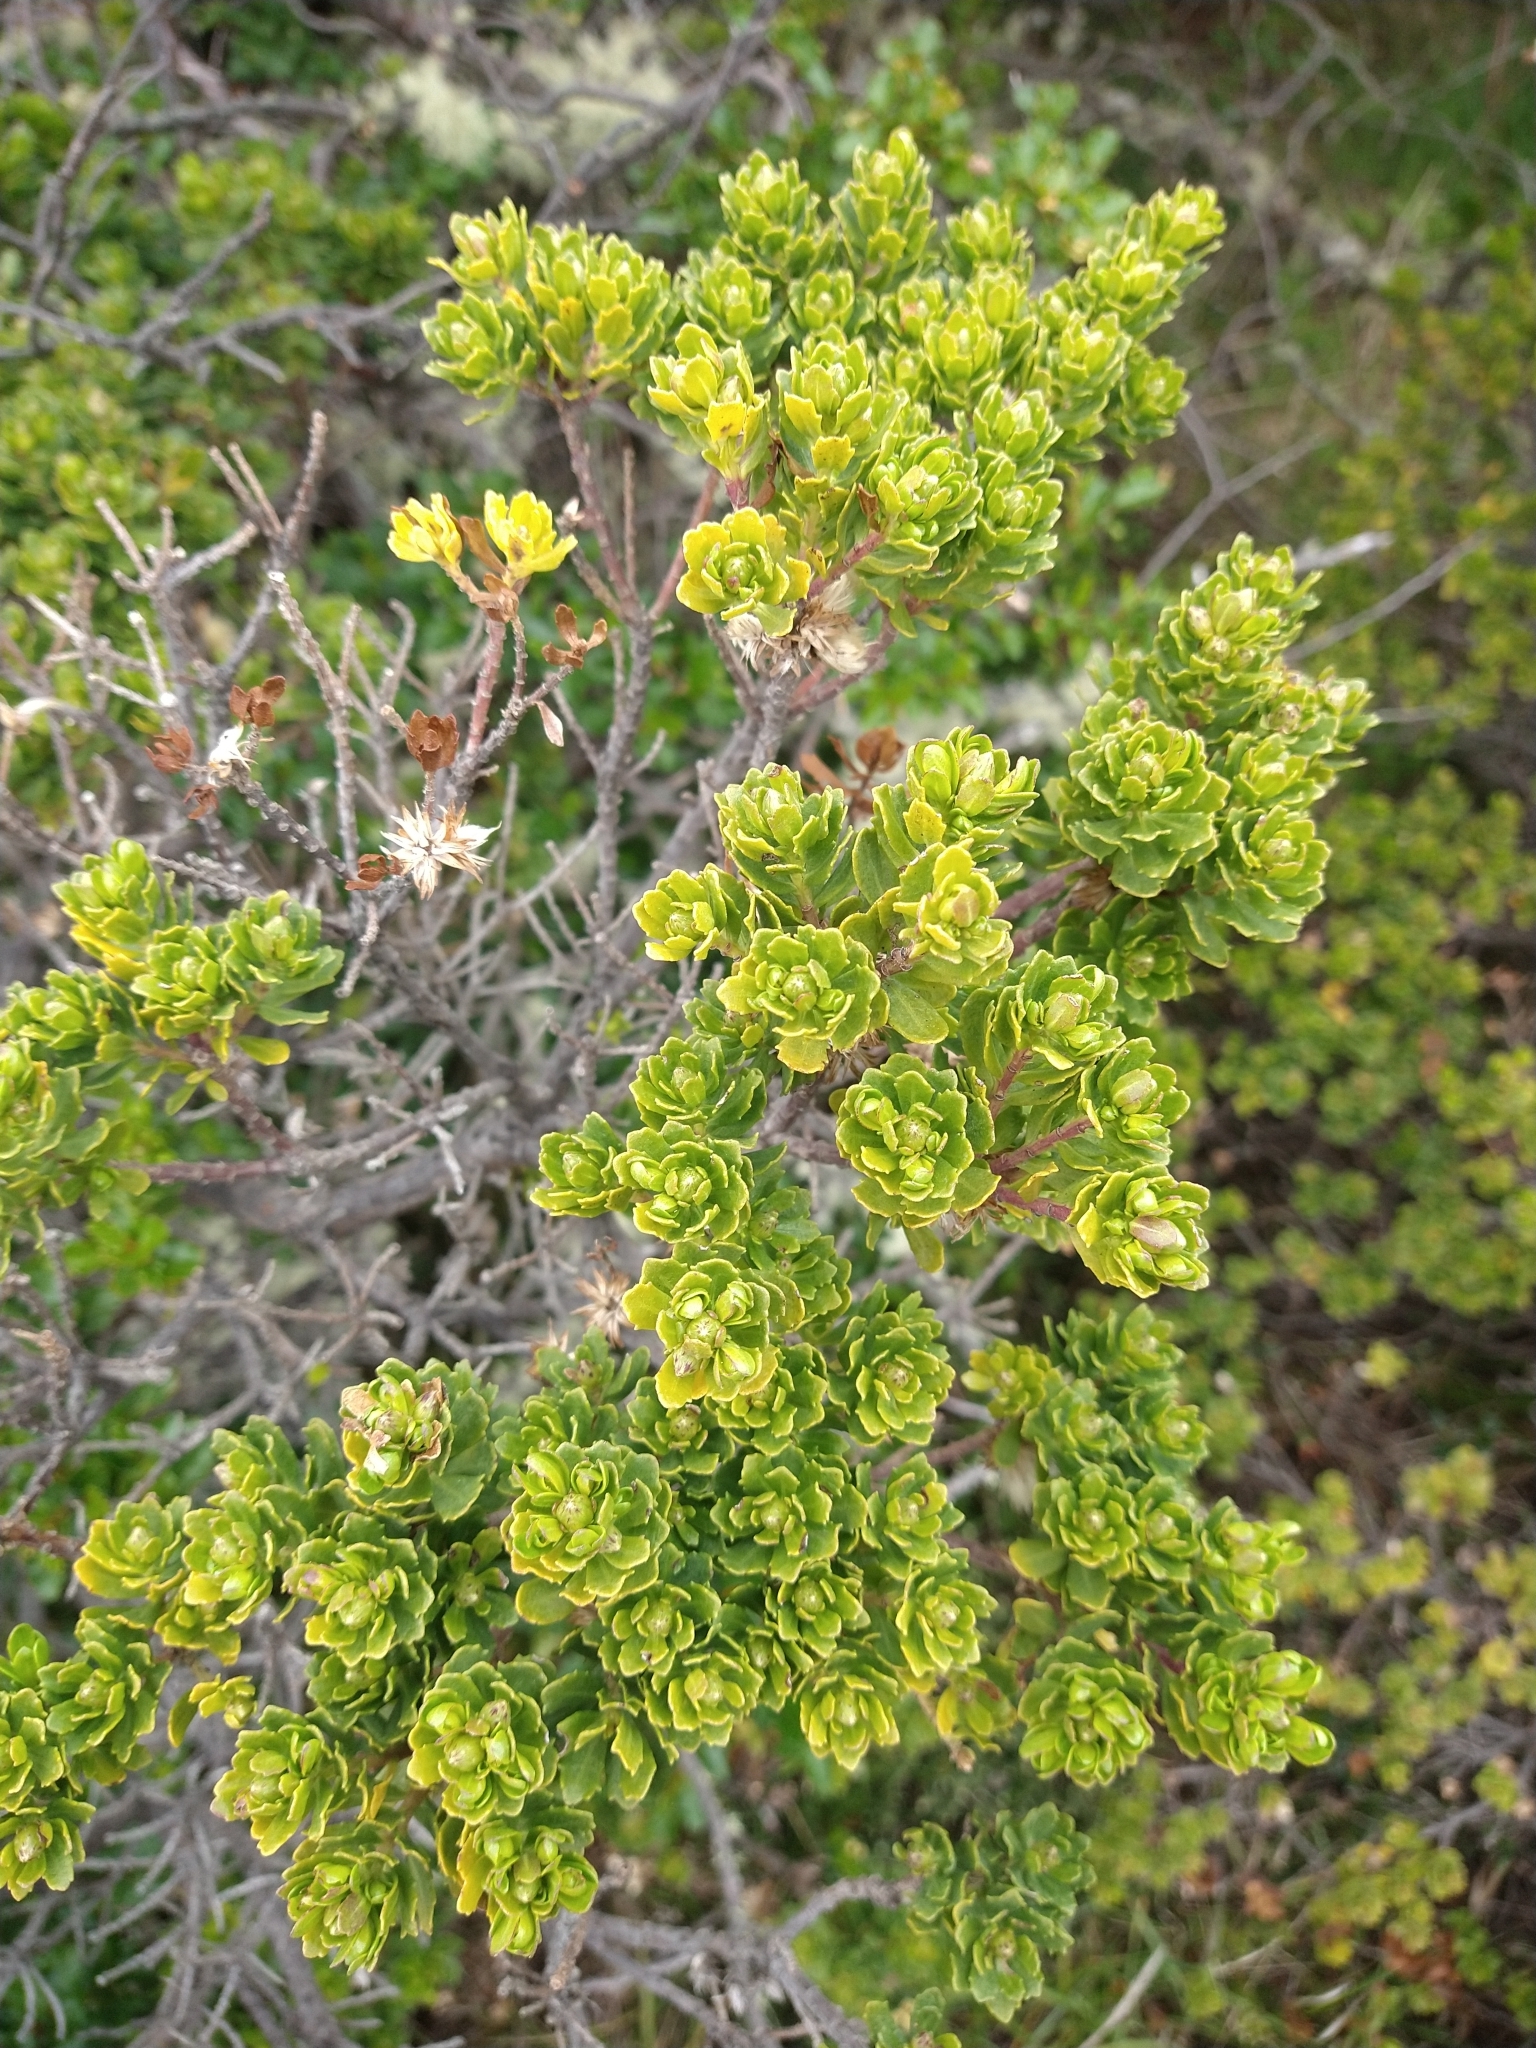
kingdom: Plantae
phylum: Tracheophyta
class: Magnoliopsida
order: Asterales
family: Asteraceae
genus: Baccharis
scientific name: Baccharis patagonica
